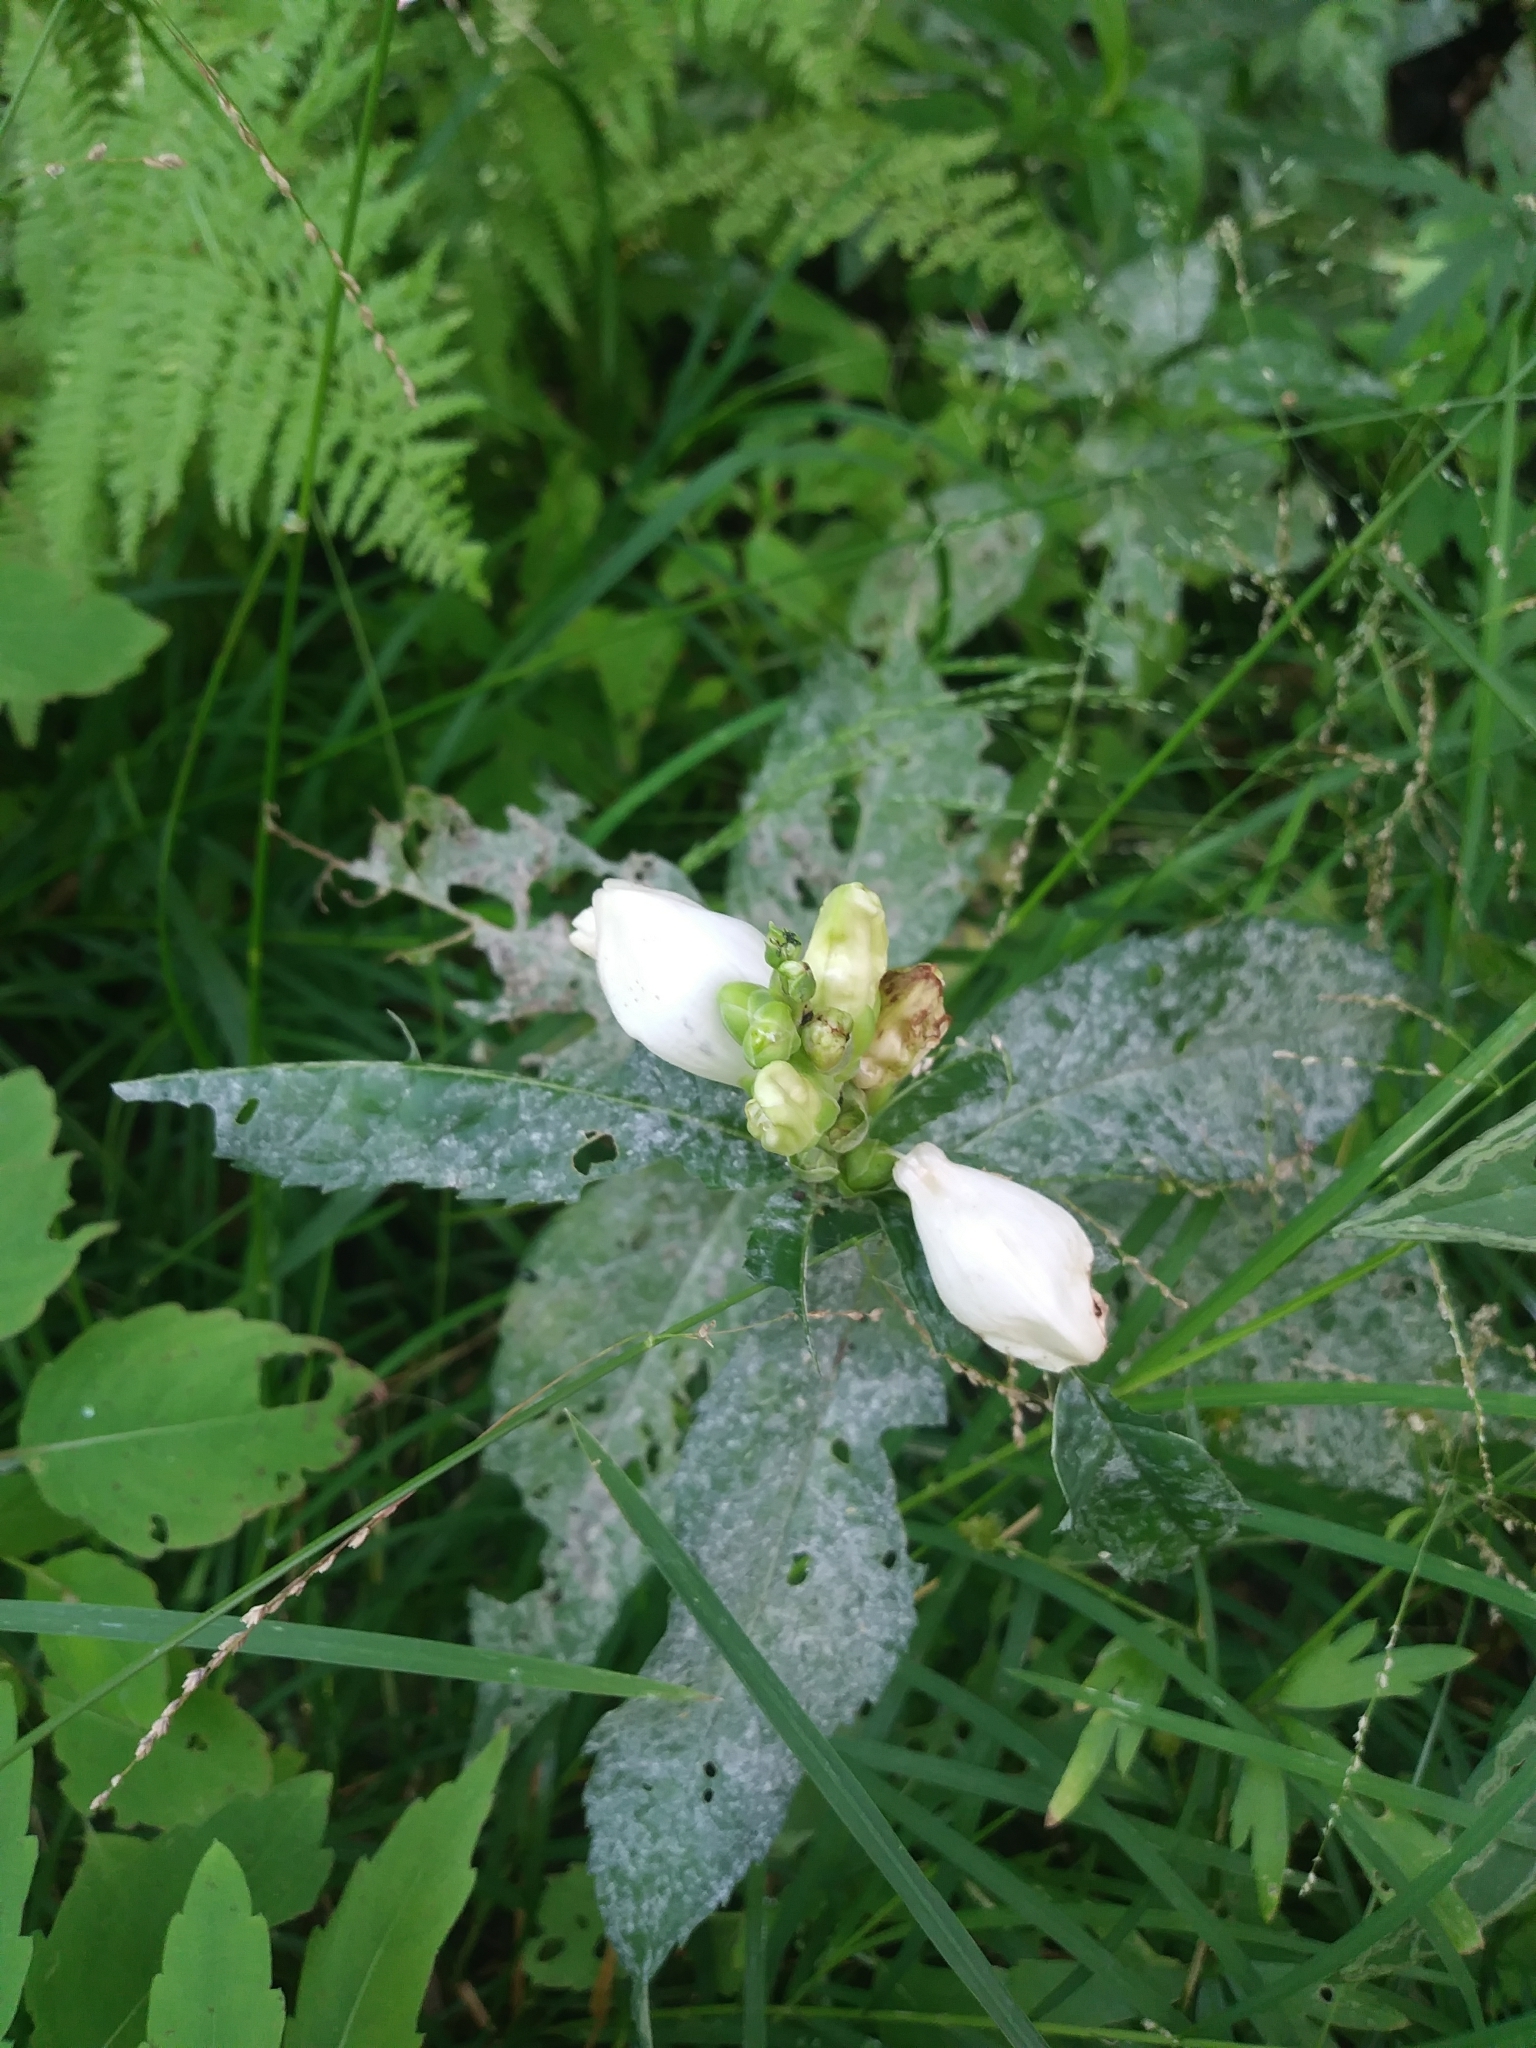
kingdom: Plantae
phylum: Tracheophyta
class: Magnoliopsida
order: Lamiales
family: Plantaginaceae
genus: Chelone
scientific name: Chelone glabra
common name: Snakehead
